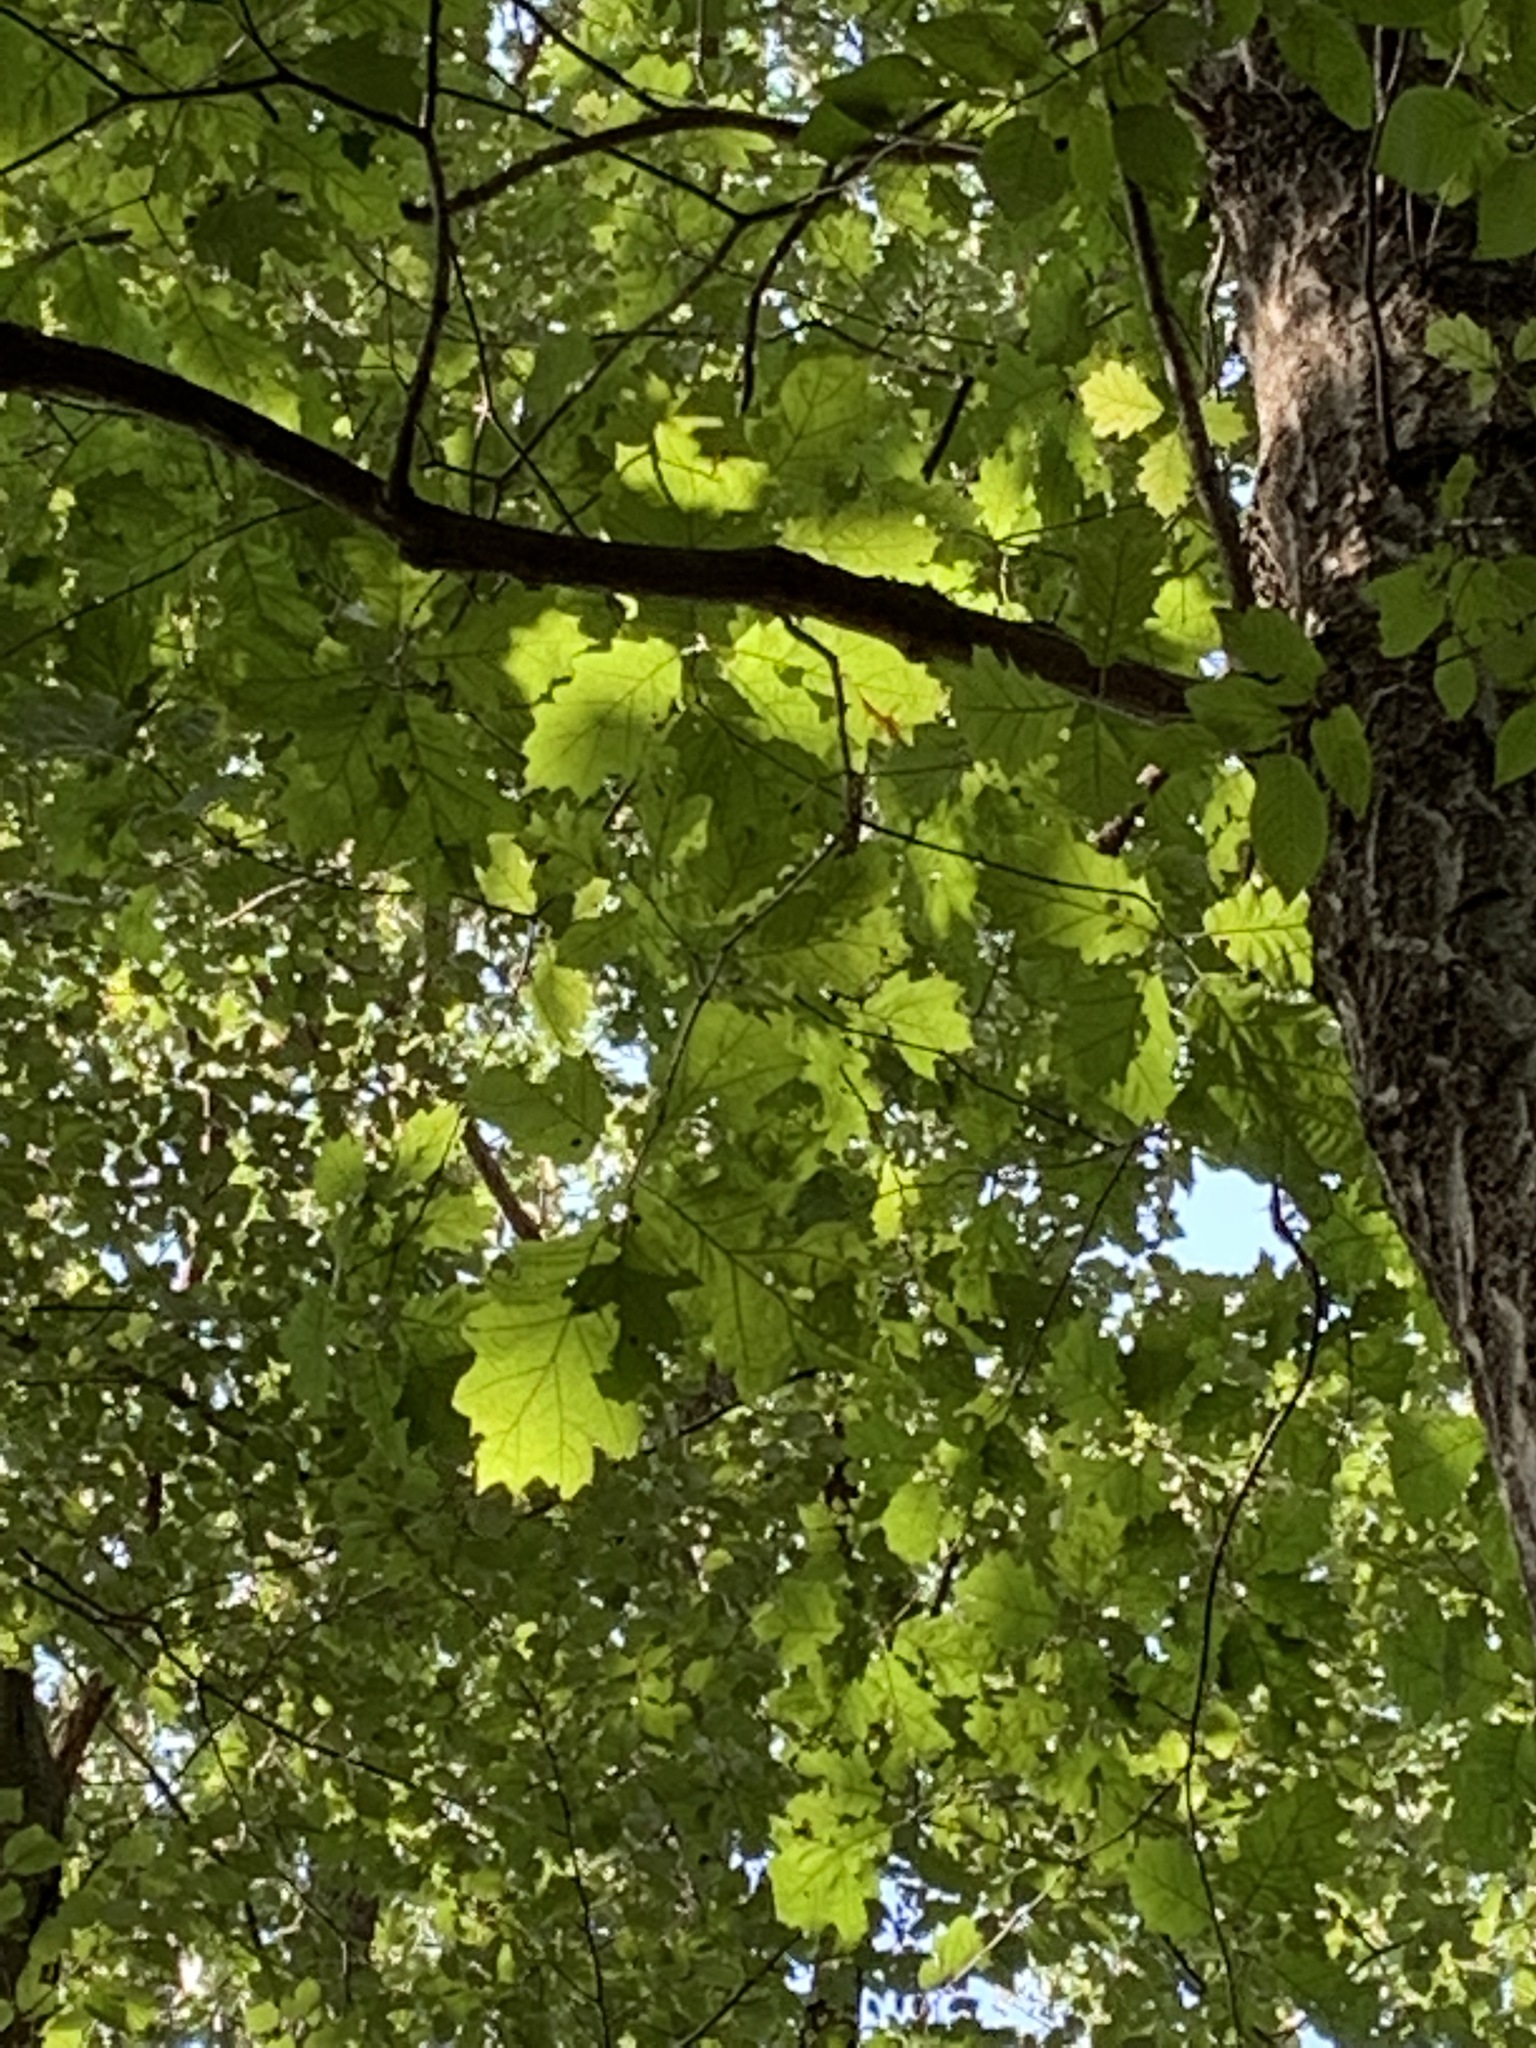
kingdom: Plantae
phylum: Tracheophyta
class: Magnoliopsida
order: Fagales
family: Fagaceae
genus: Quercus
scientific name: Quercus rubra
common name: Red oak
